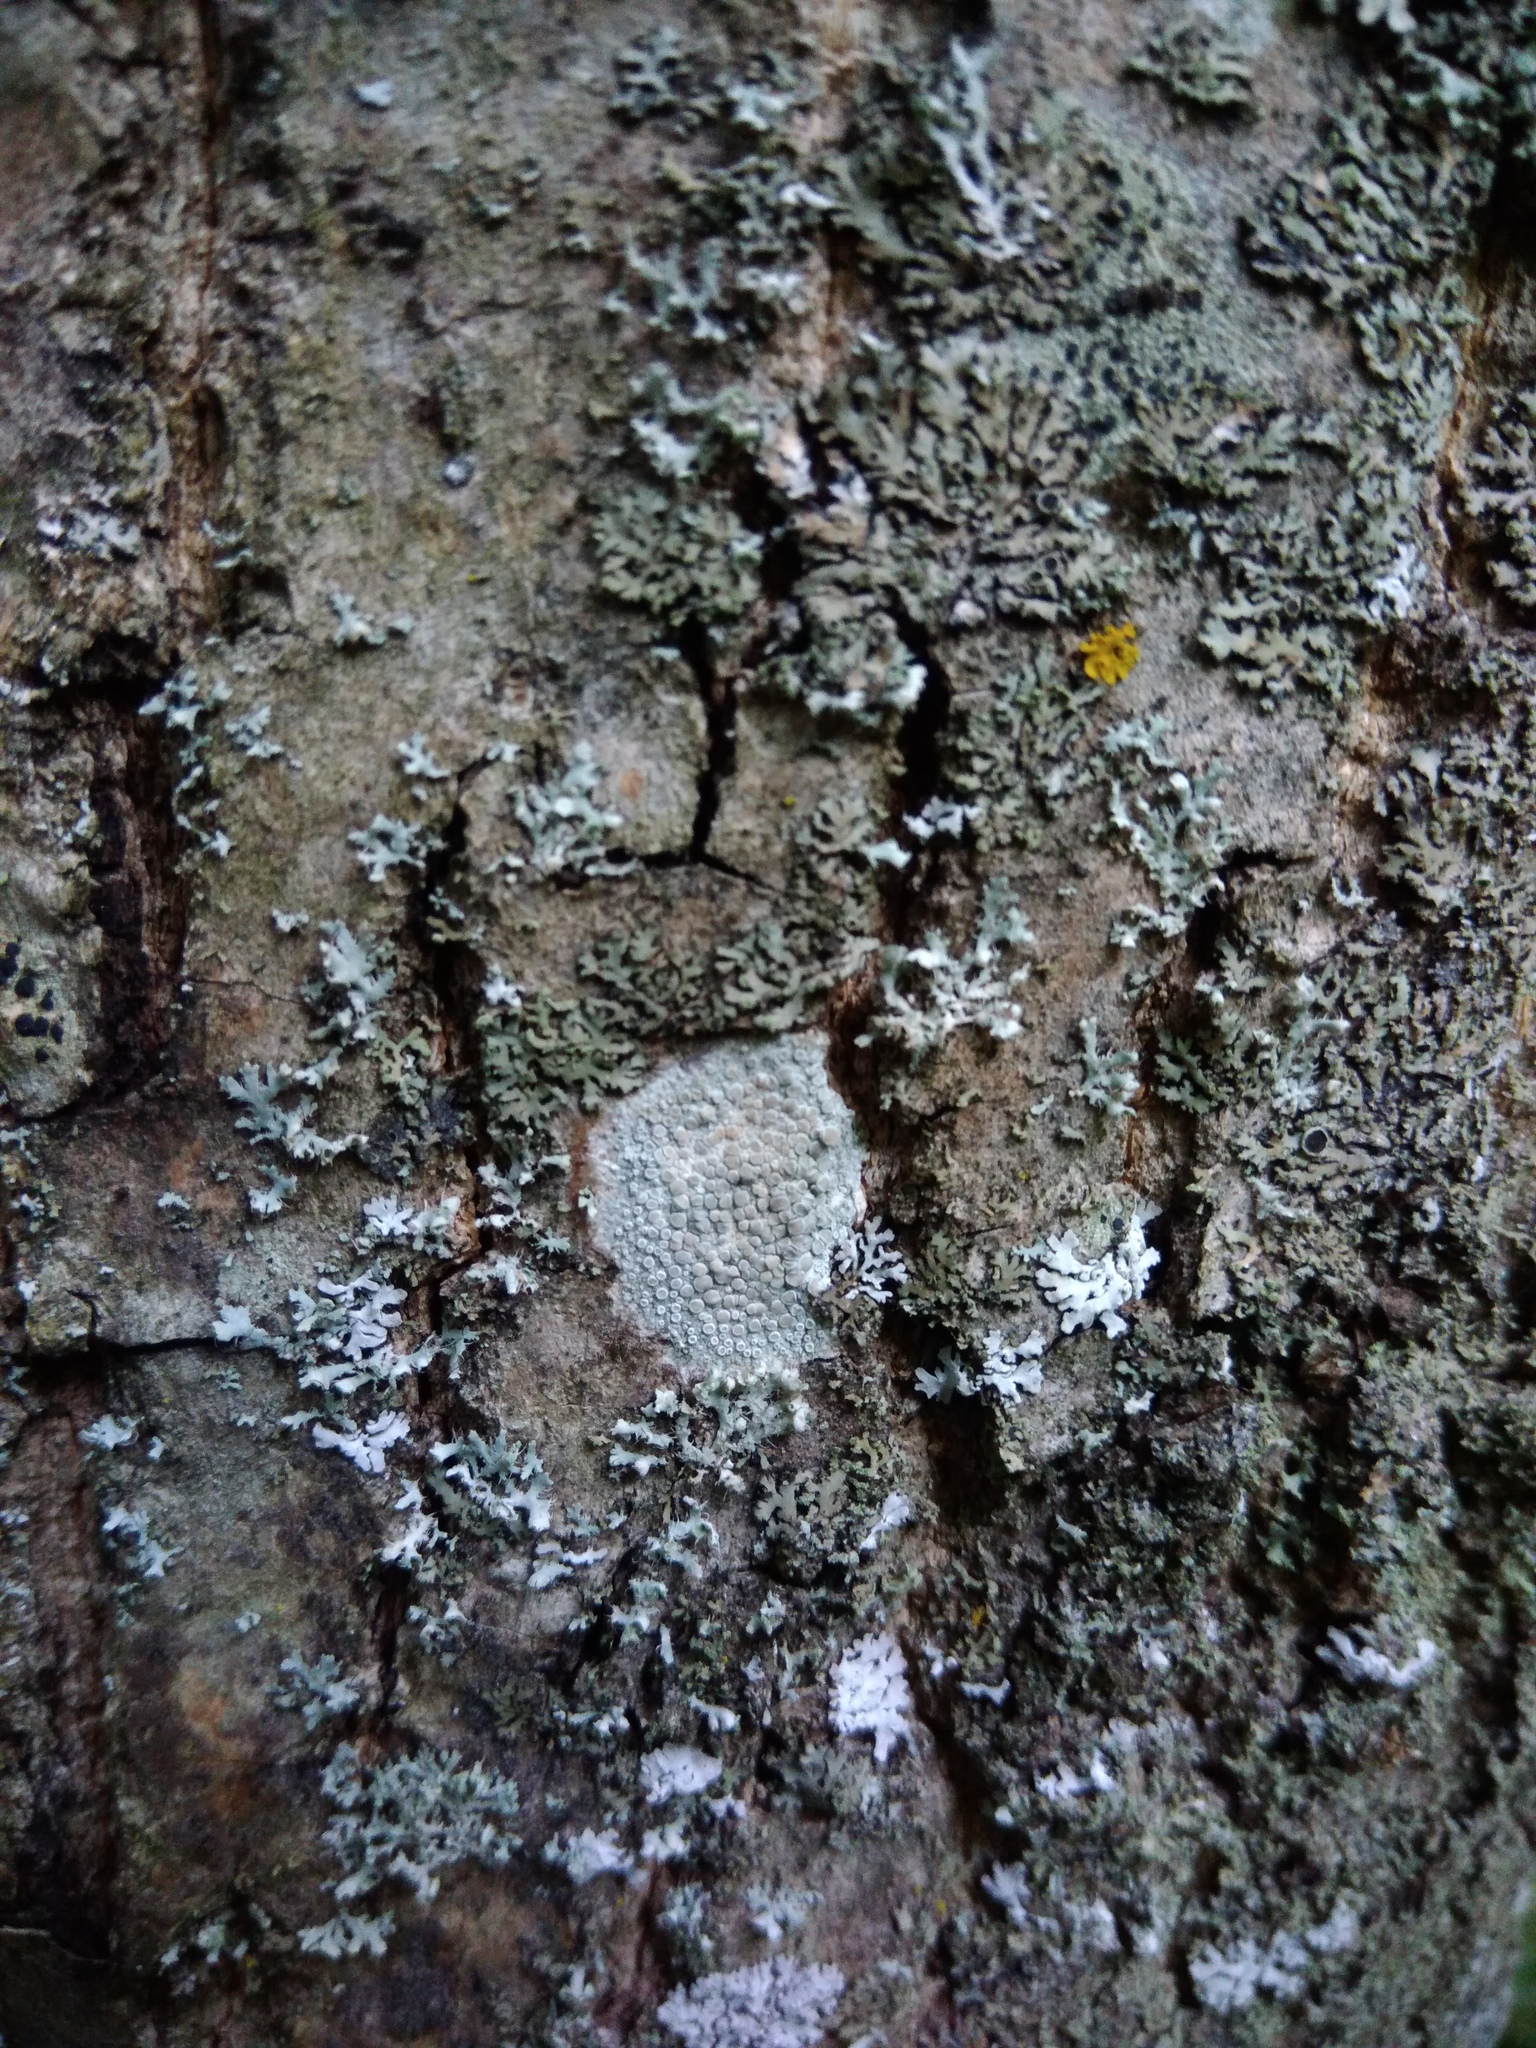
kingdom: Fungi
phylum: Ascomycota
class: Lecanoromycetes
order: Lecanorales
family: Lecanoraceae
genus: Glaucomaria
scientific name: Glaucomaria carpinea
